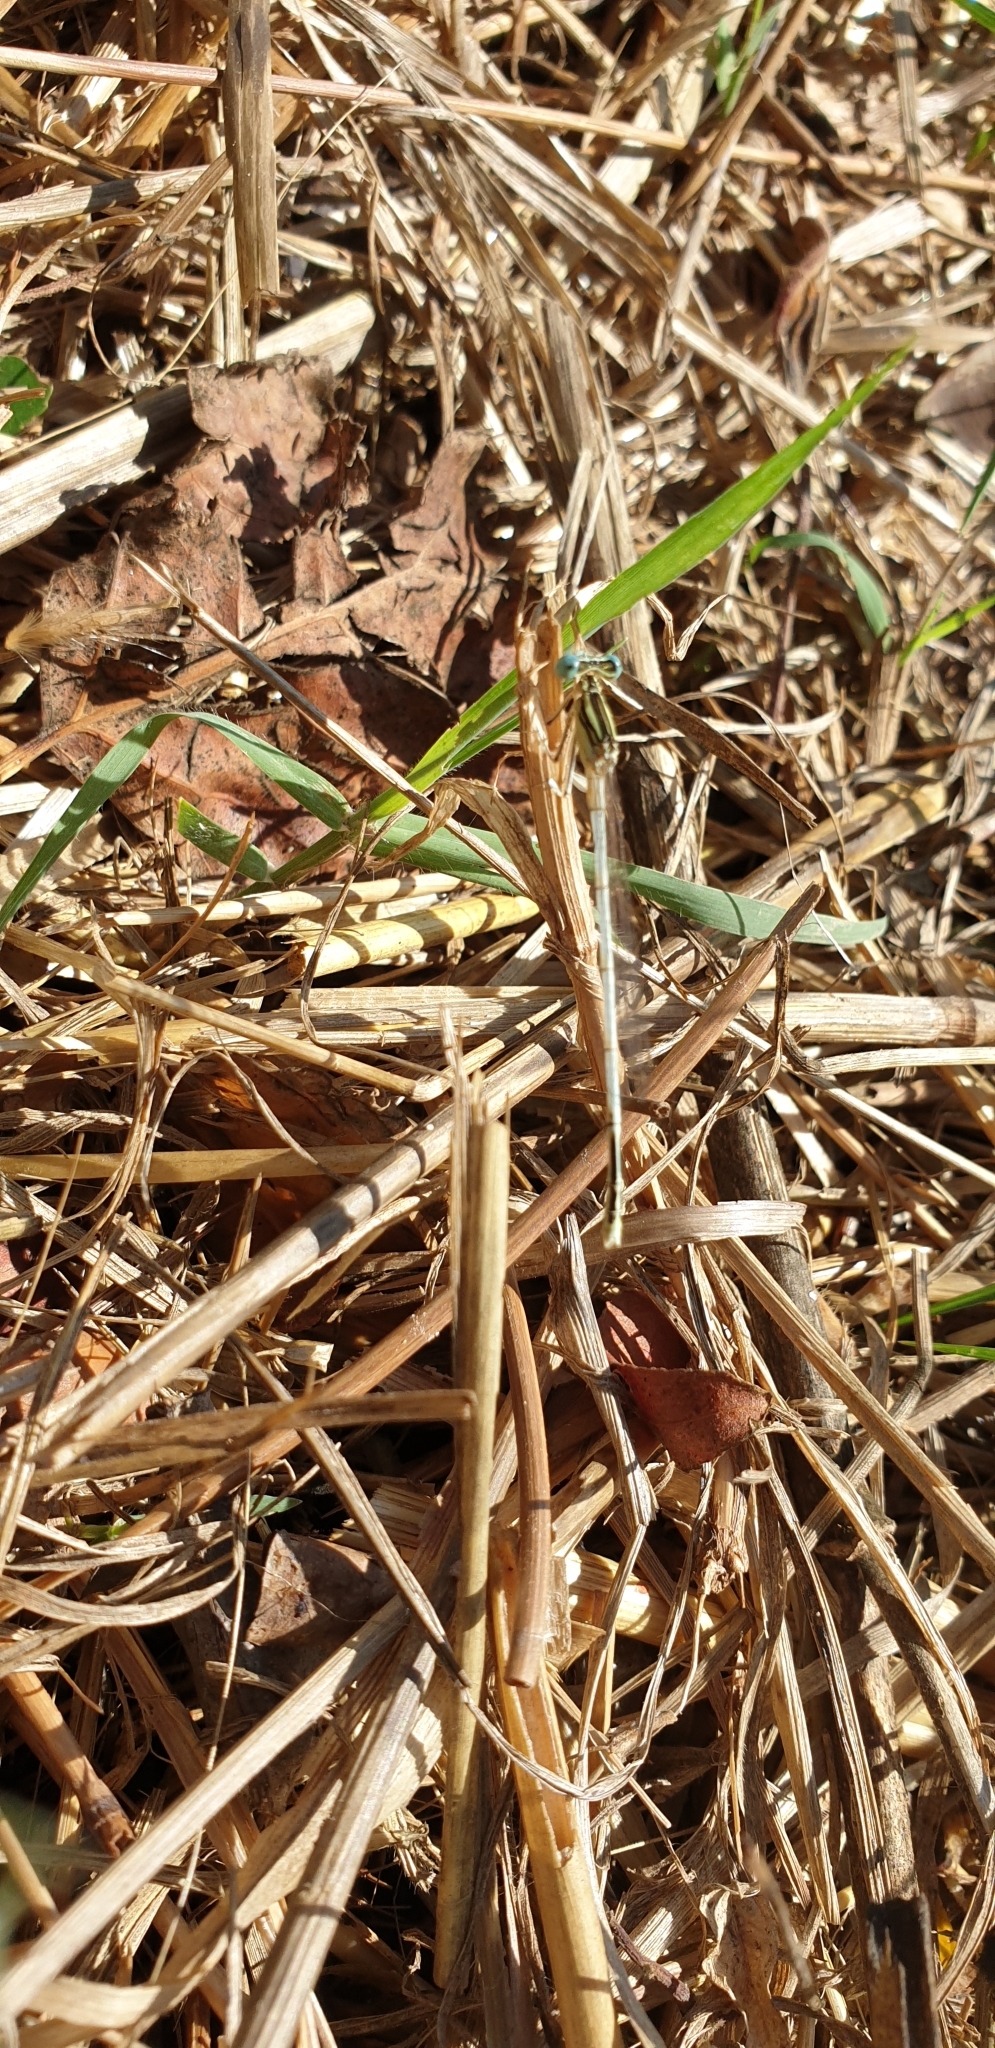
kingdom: Animalia
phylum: Arthropoda
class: Insecta
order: Odonata
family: Platycnemididae
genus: Platycnemis
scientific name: Platycnemis latipes
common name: White featherleg
